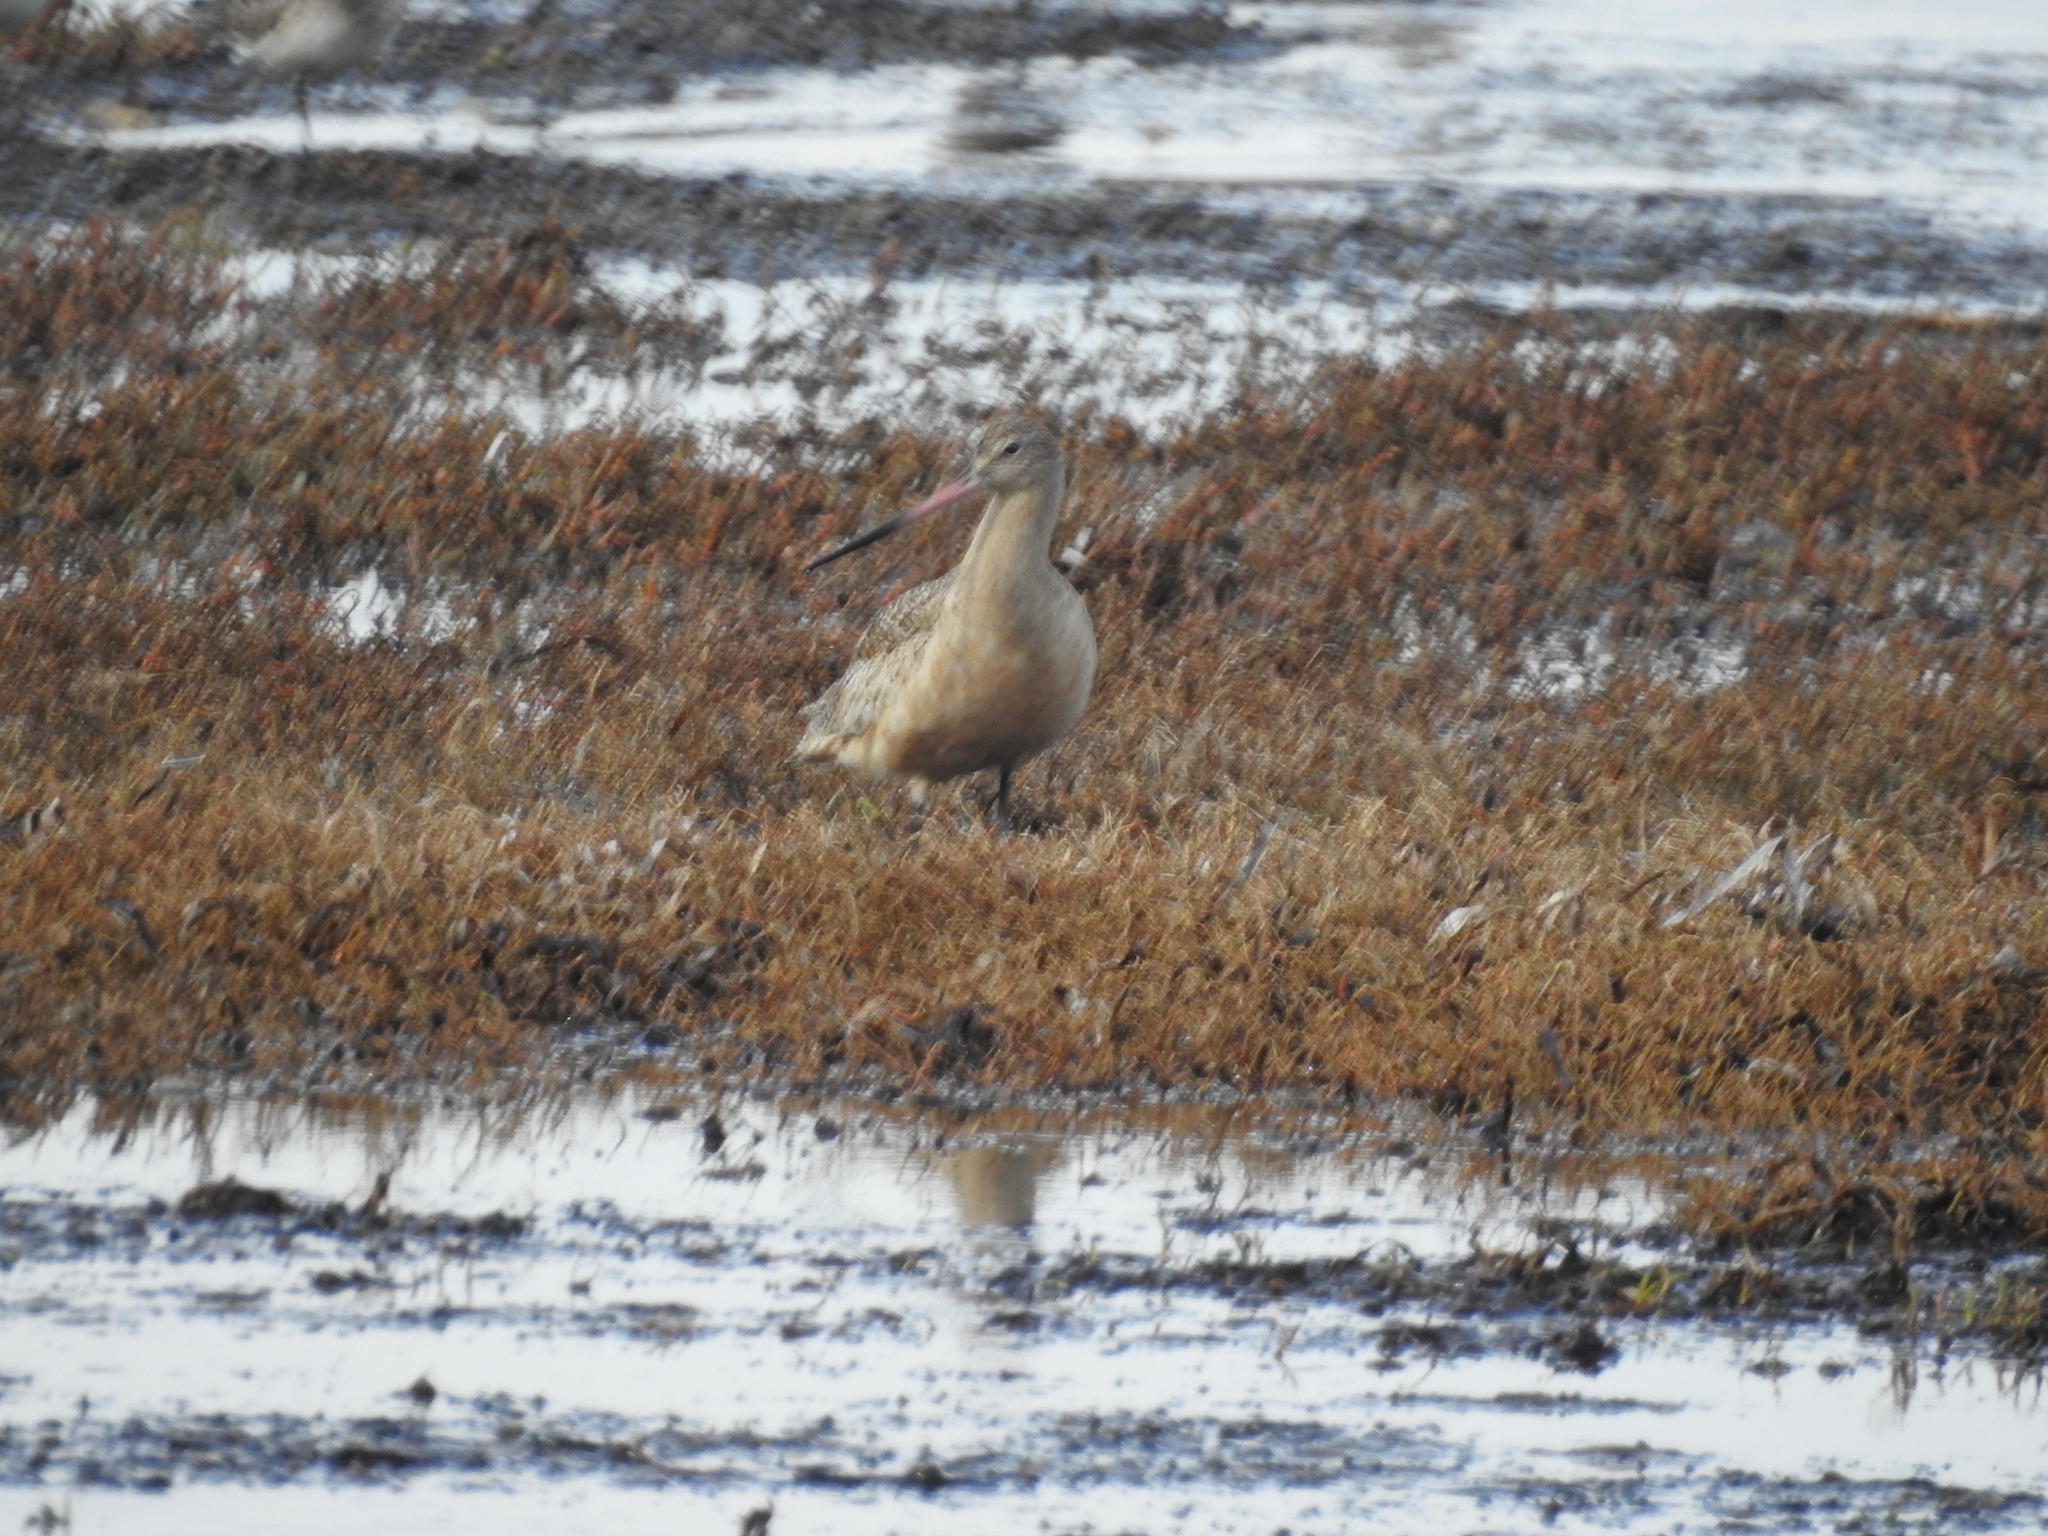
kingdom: Animalia
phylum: Chordata
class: Aves
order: Charadriiformes
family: Scolopacidae
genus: Limosa
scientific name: Limosa fedoa
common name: Marbled godwit
